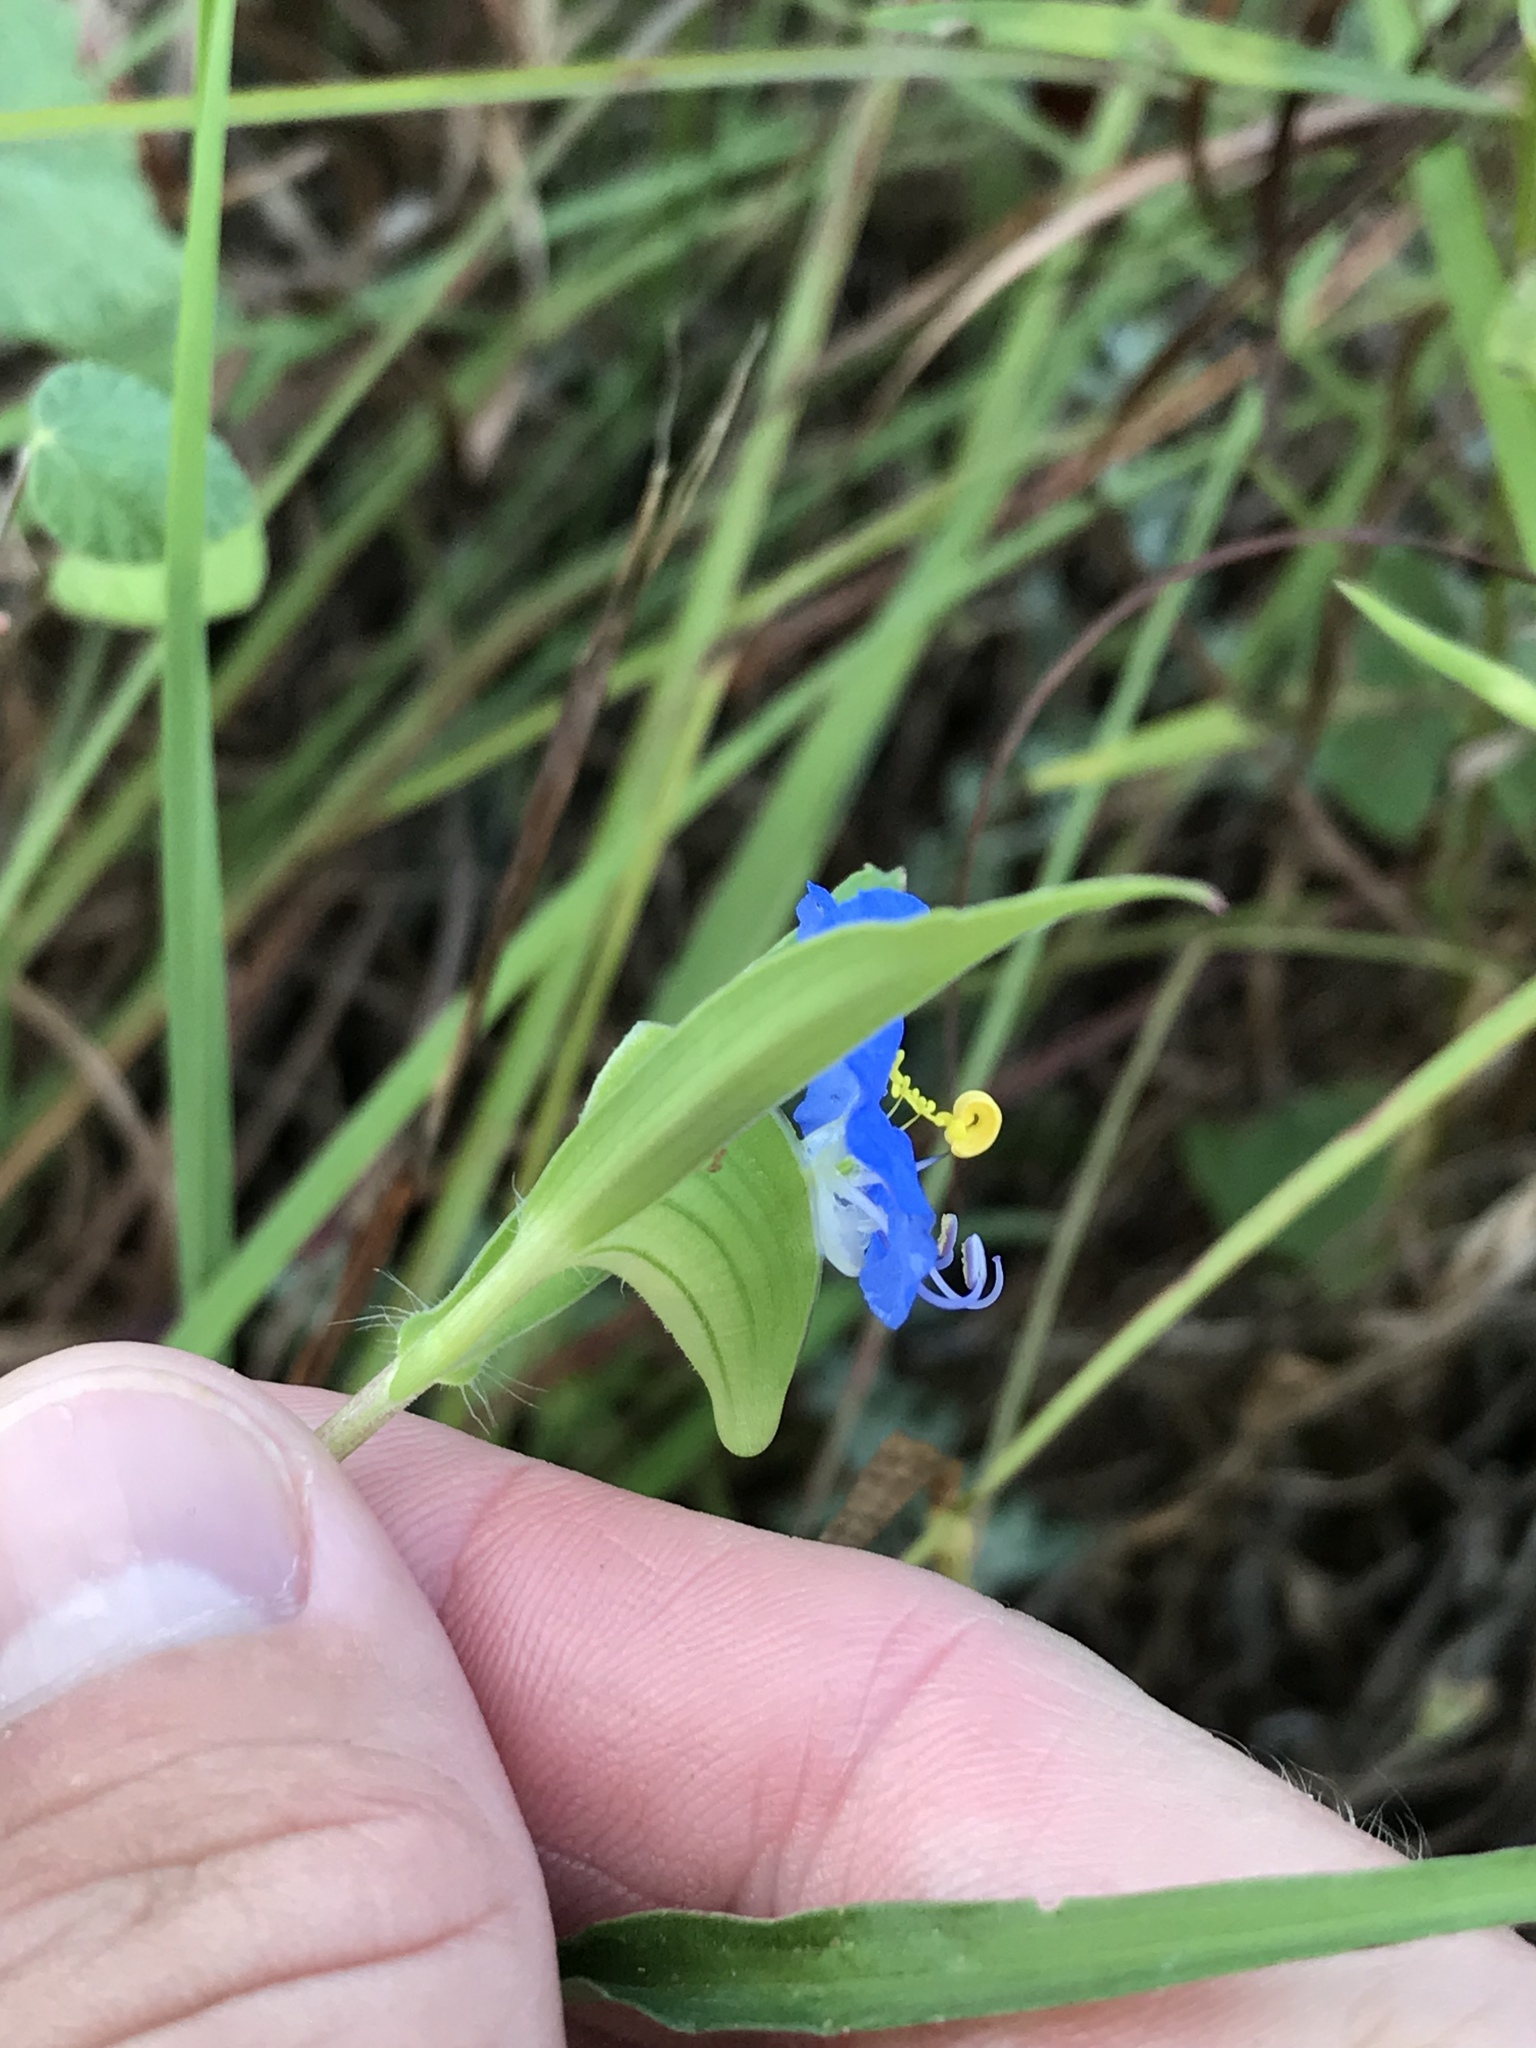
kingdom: Plantae
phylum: Tracheophyta
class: Liliopsida
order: Commelinales
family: Commelinaceae
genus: Commelina
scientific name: Commelina erecta
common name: Blousel blommetjie
